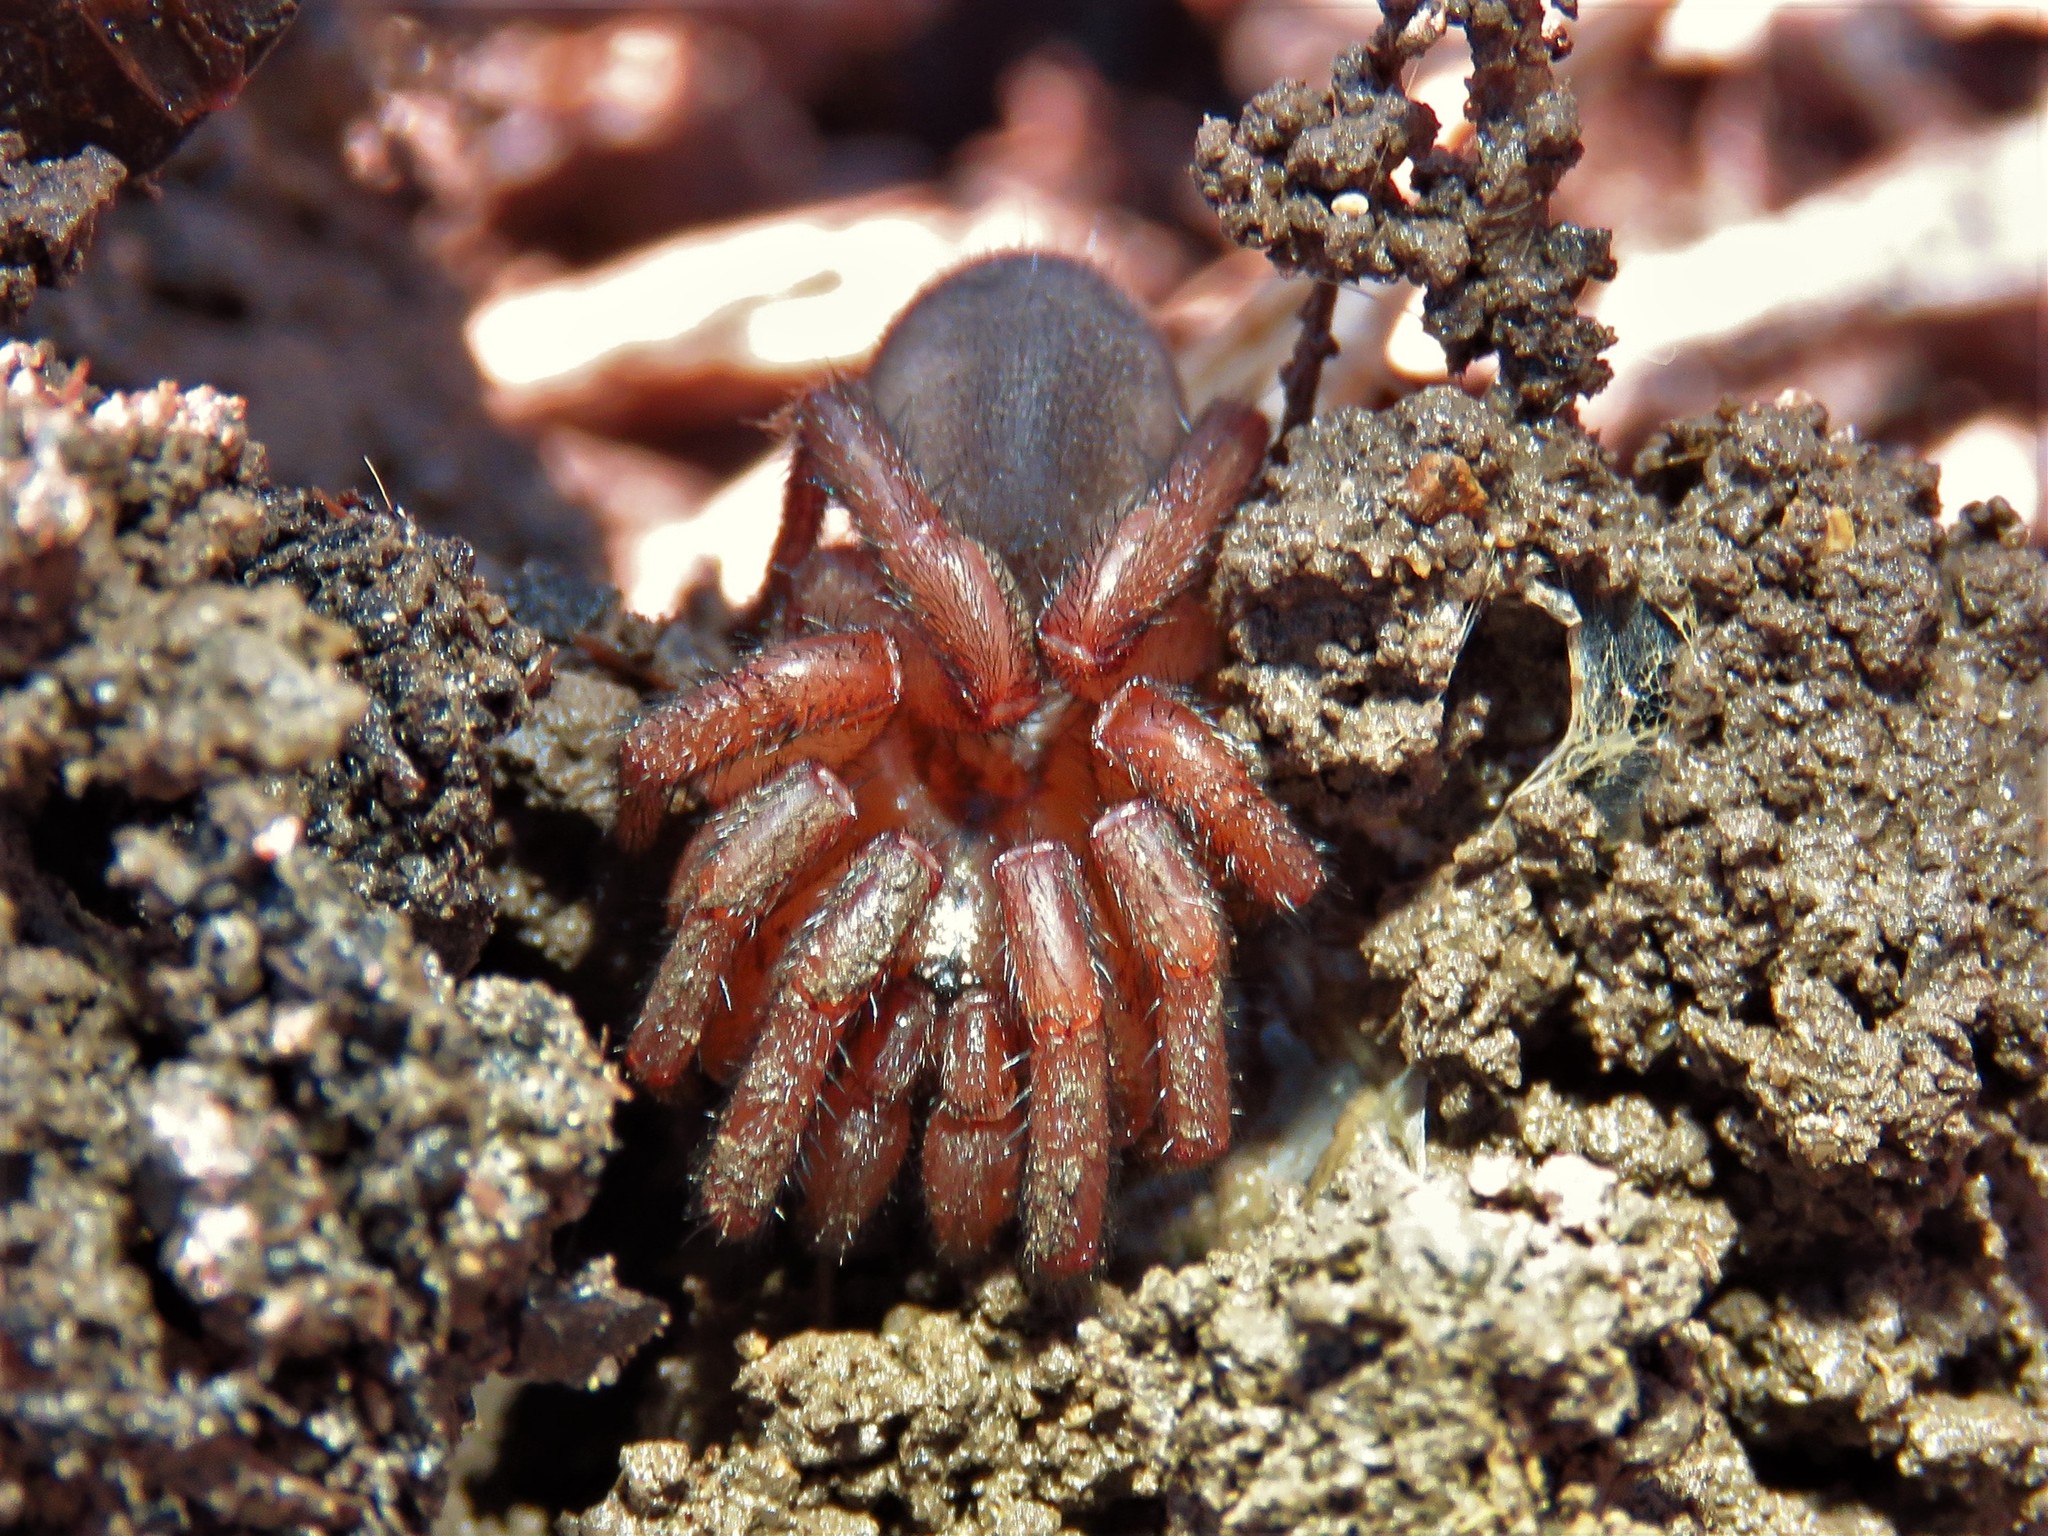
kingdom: Animalia
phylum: Arthropoda
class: Arachnida
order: Araneae
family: Euctenizidae
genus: Myrmekiaphila
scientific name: Myrmekiaphila comstocki
